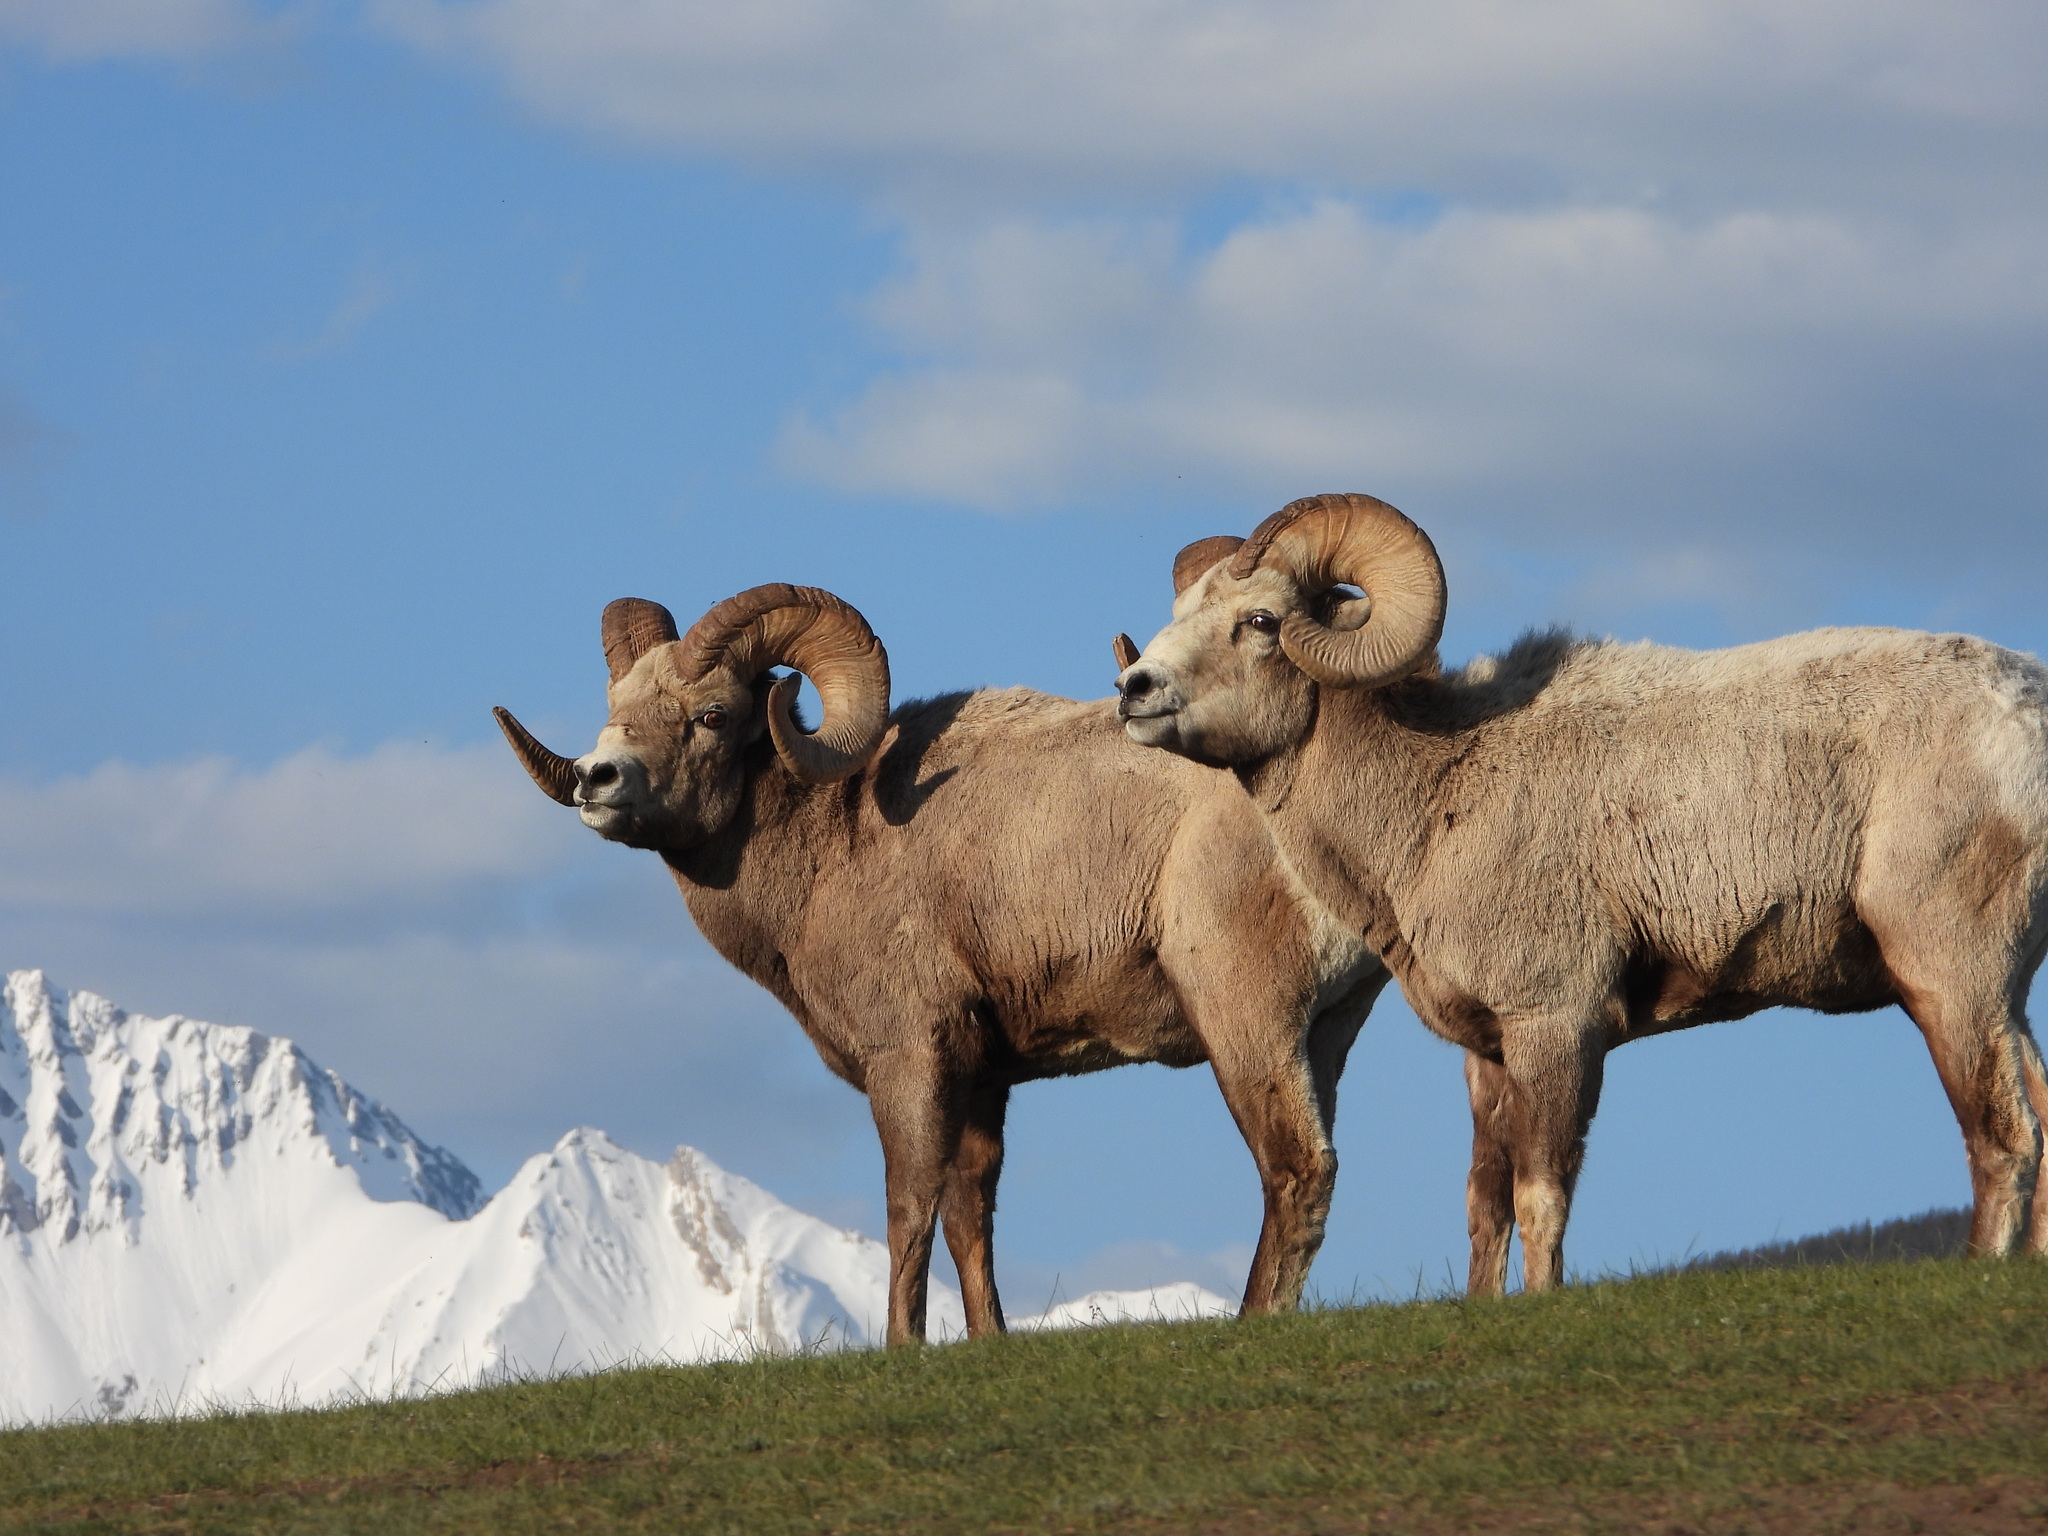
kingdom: Animalia
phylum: Chordata
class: Mammalia
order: Artiodactyla
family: Bovidae
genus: Ovis
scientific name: Ovis canadensis
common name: Bighorn sheep
